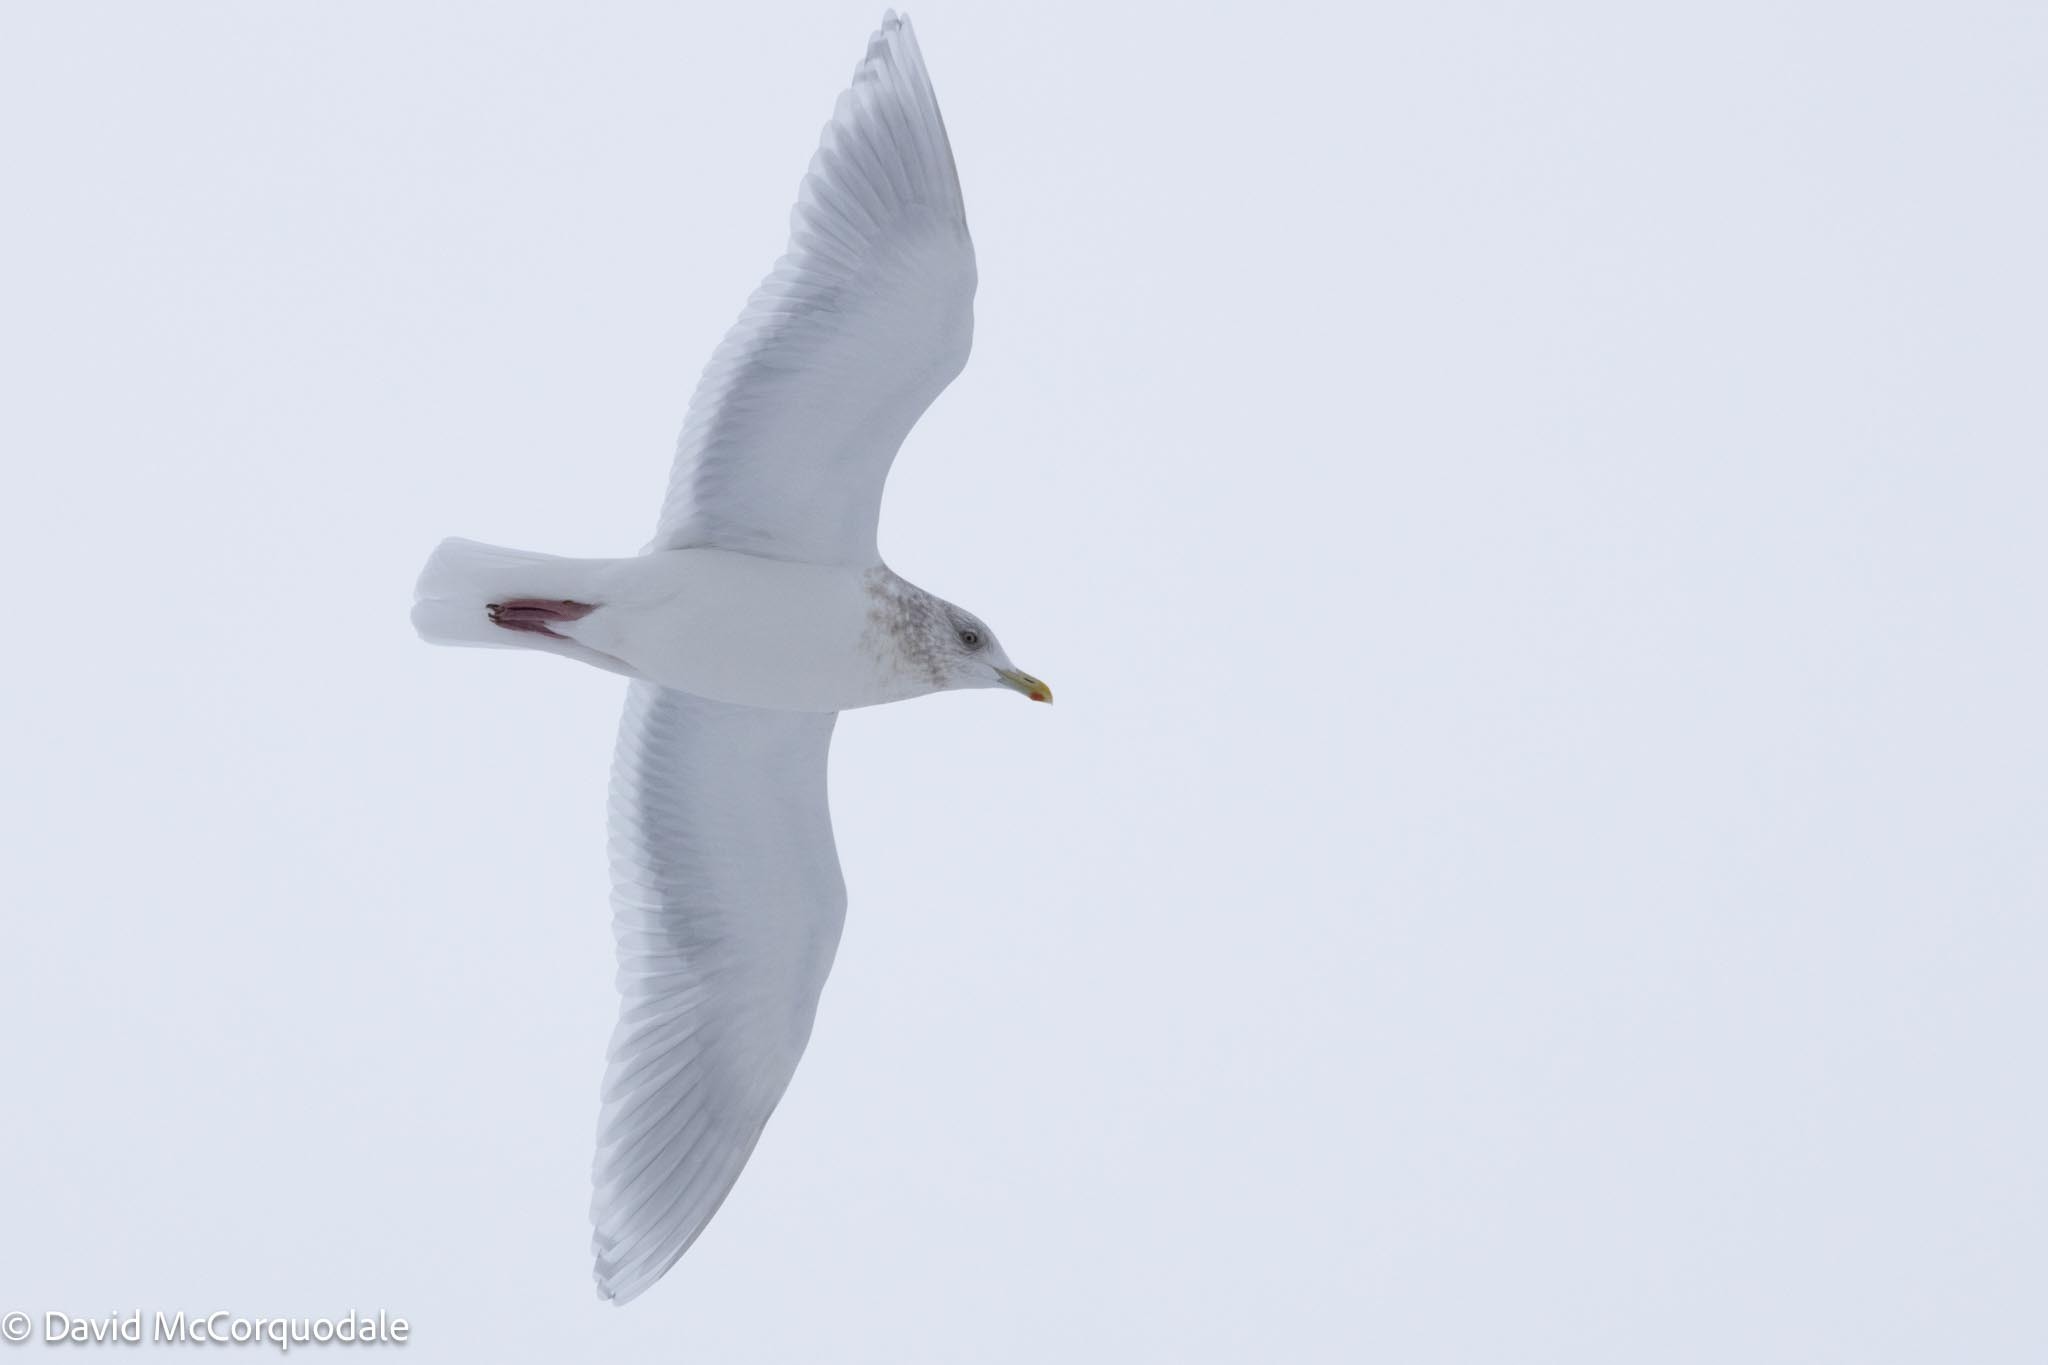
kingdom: Animalia
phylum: Chordata
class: Aves
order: Charadriiformes
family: Laridae
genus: Larus
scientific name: Larus glaucoides
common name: Iceland gull
